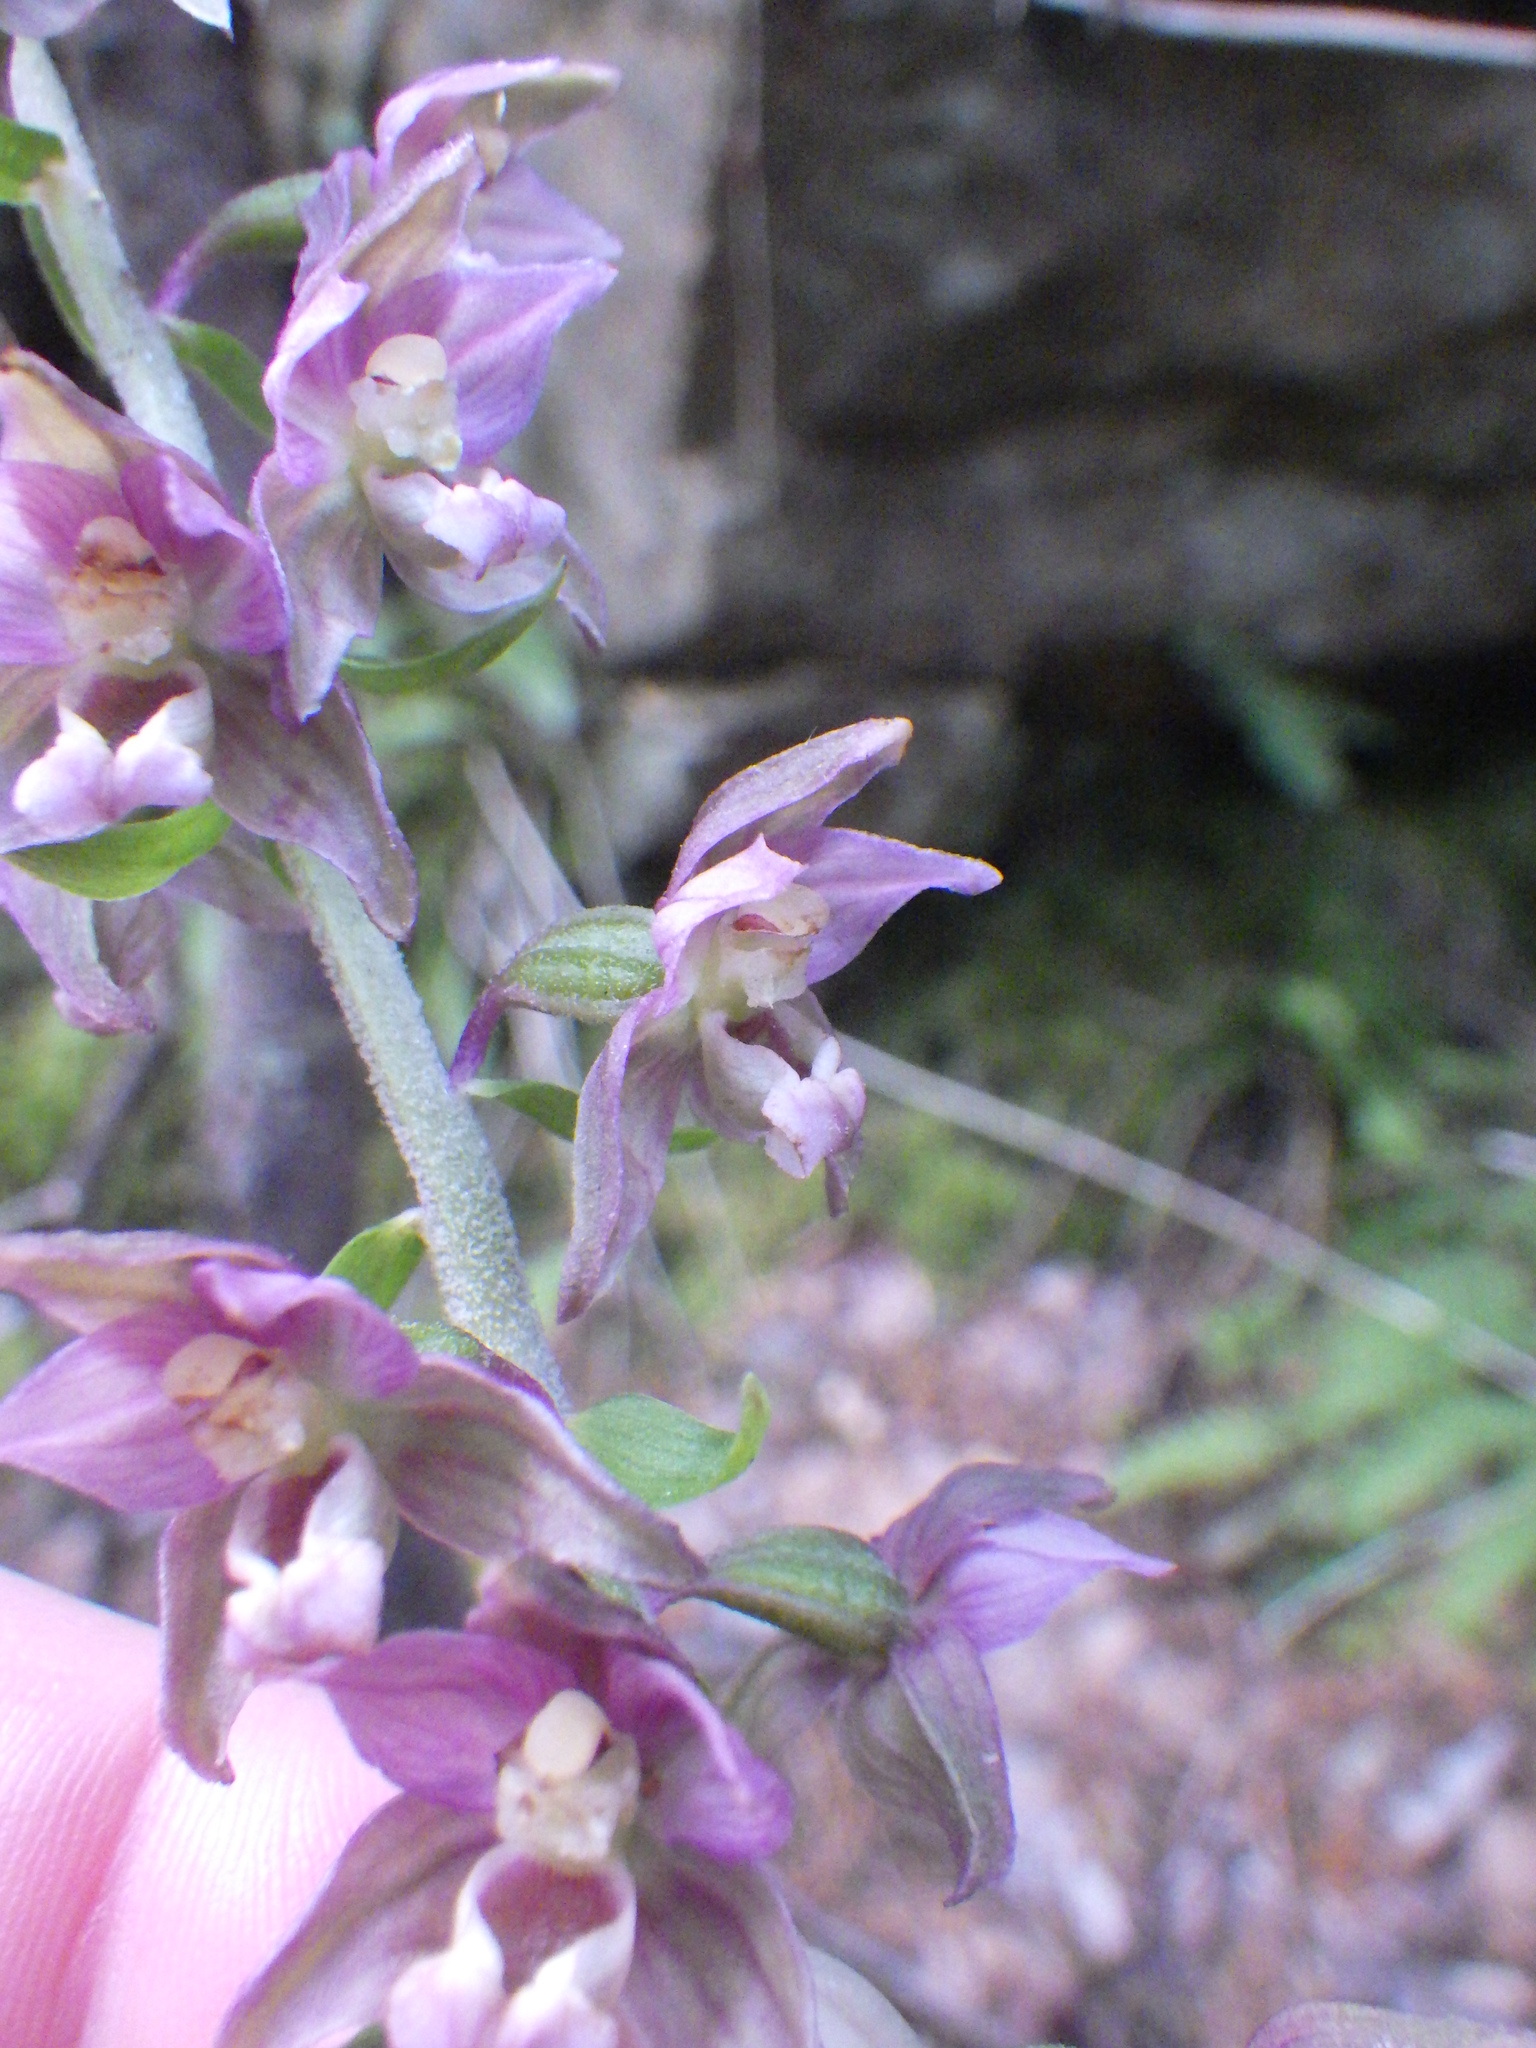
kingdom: Plantae
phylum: Tracheophyta
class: Liliopsida
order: Asparagales
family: Orchidaceae
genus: Epipactis
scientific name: Epipactis helleborine
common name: Broad-leaved helleborine
